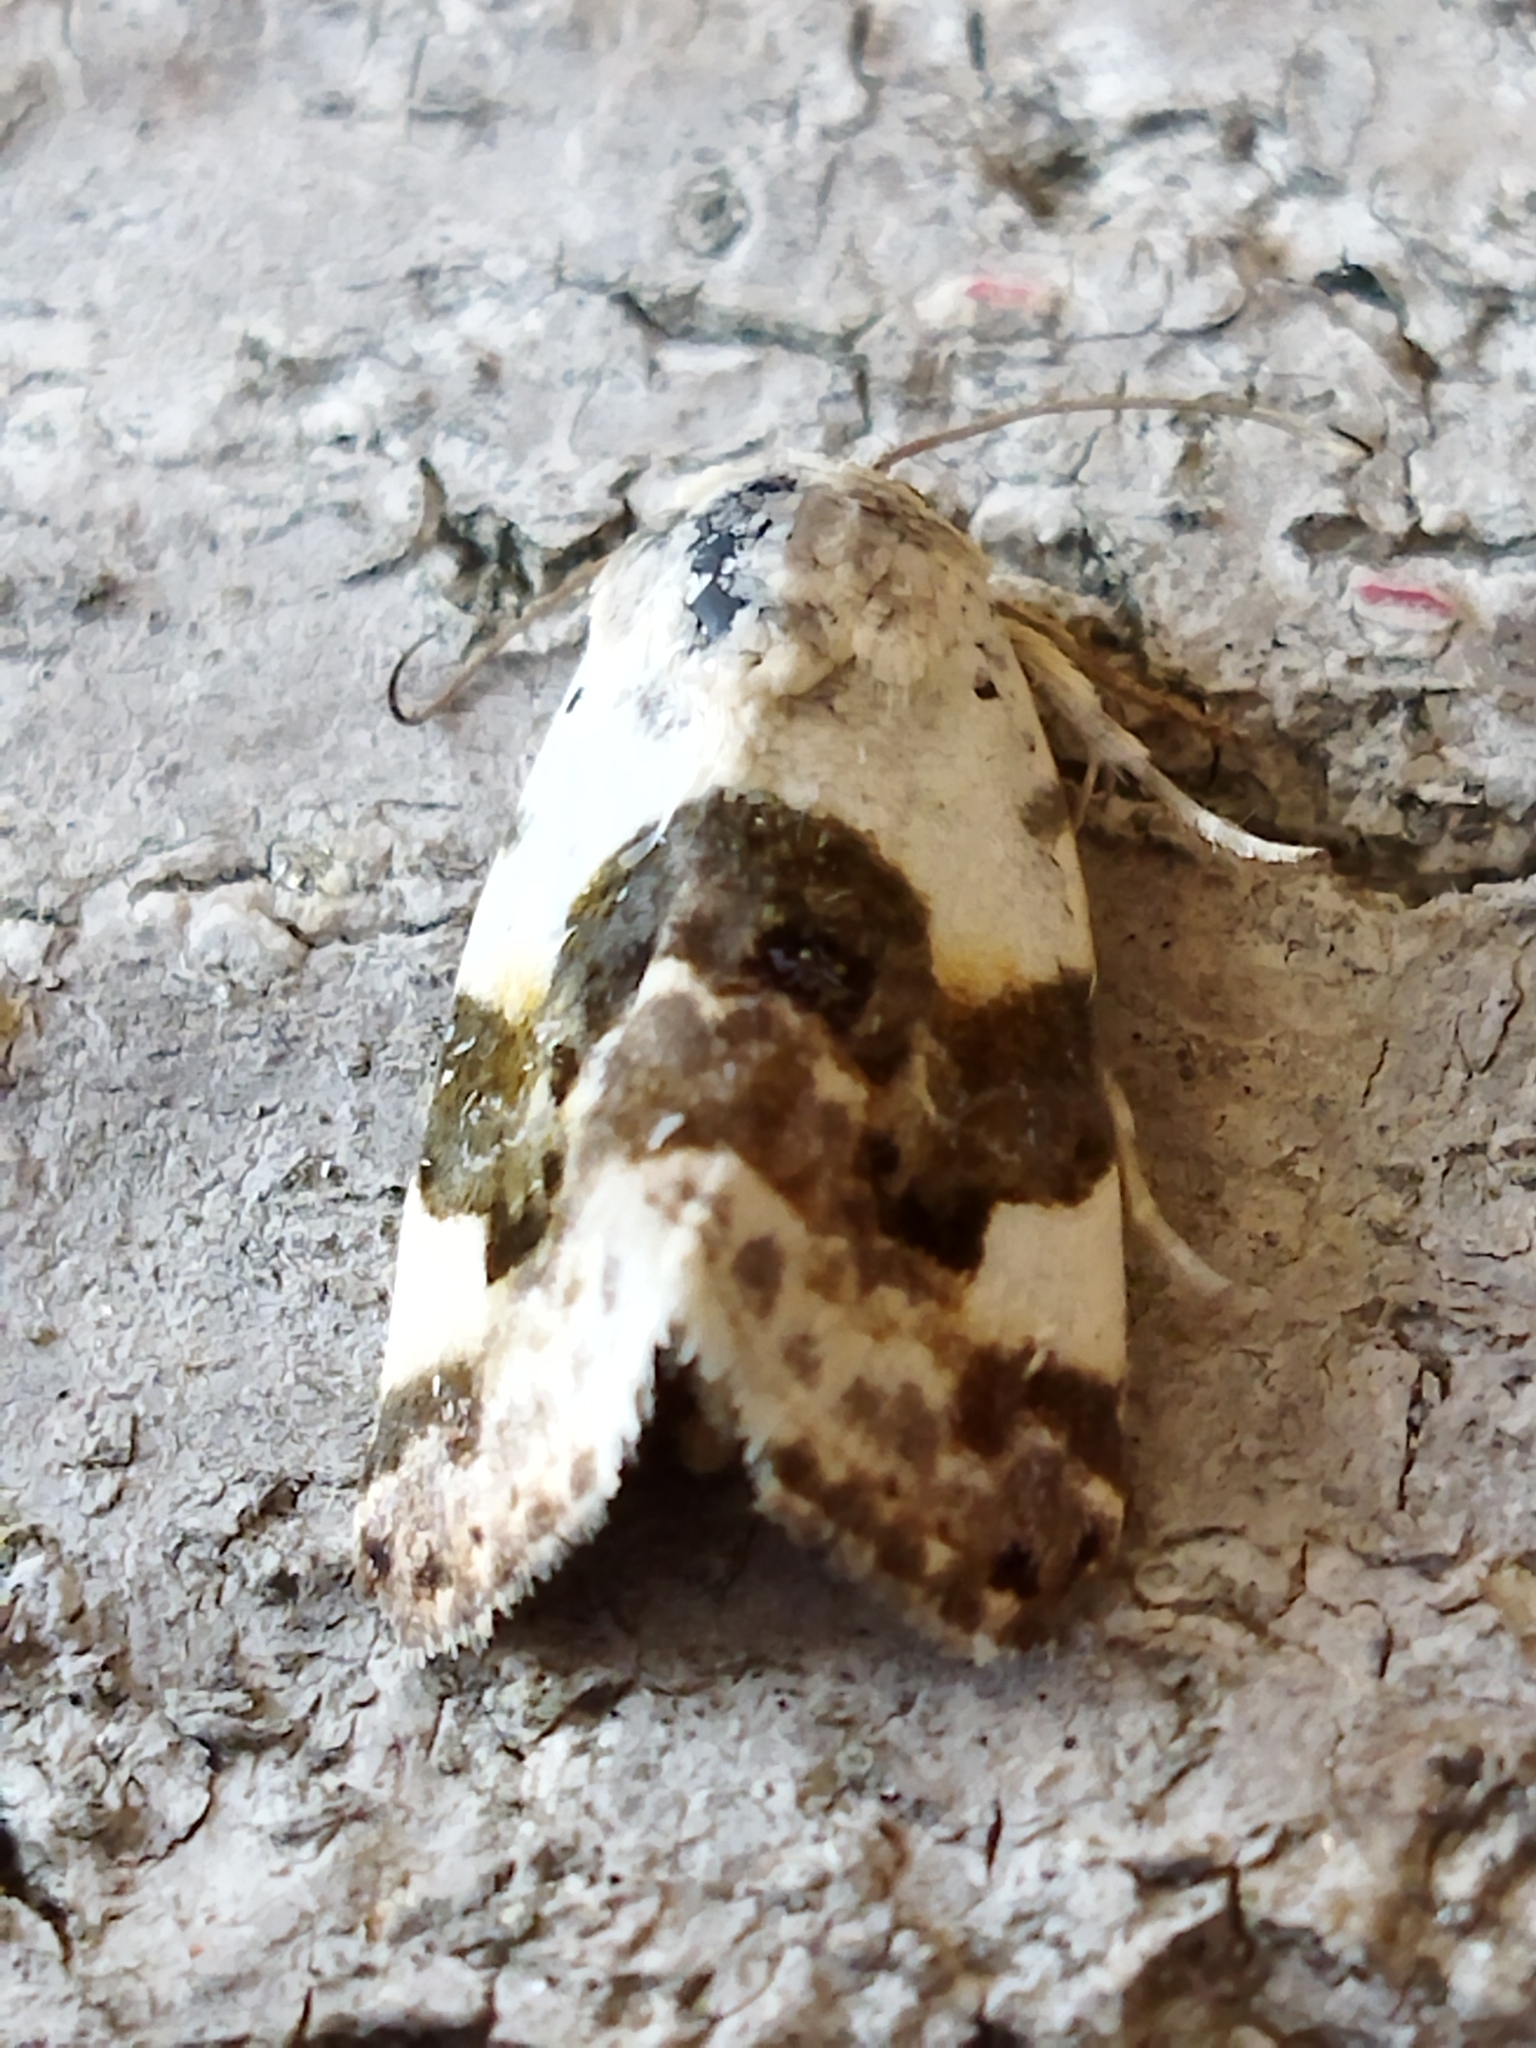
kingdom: Animalia
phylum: Arthropoda
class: Insecta
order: Lepidoptera
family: Noctuidae
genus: Acontia
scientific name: Acontia lucida
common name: Pale shoulder
